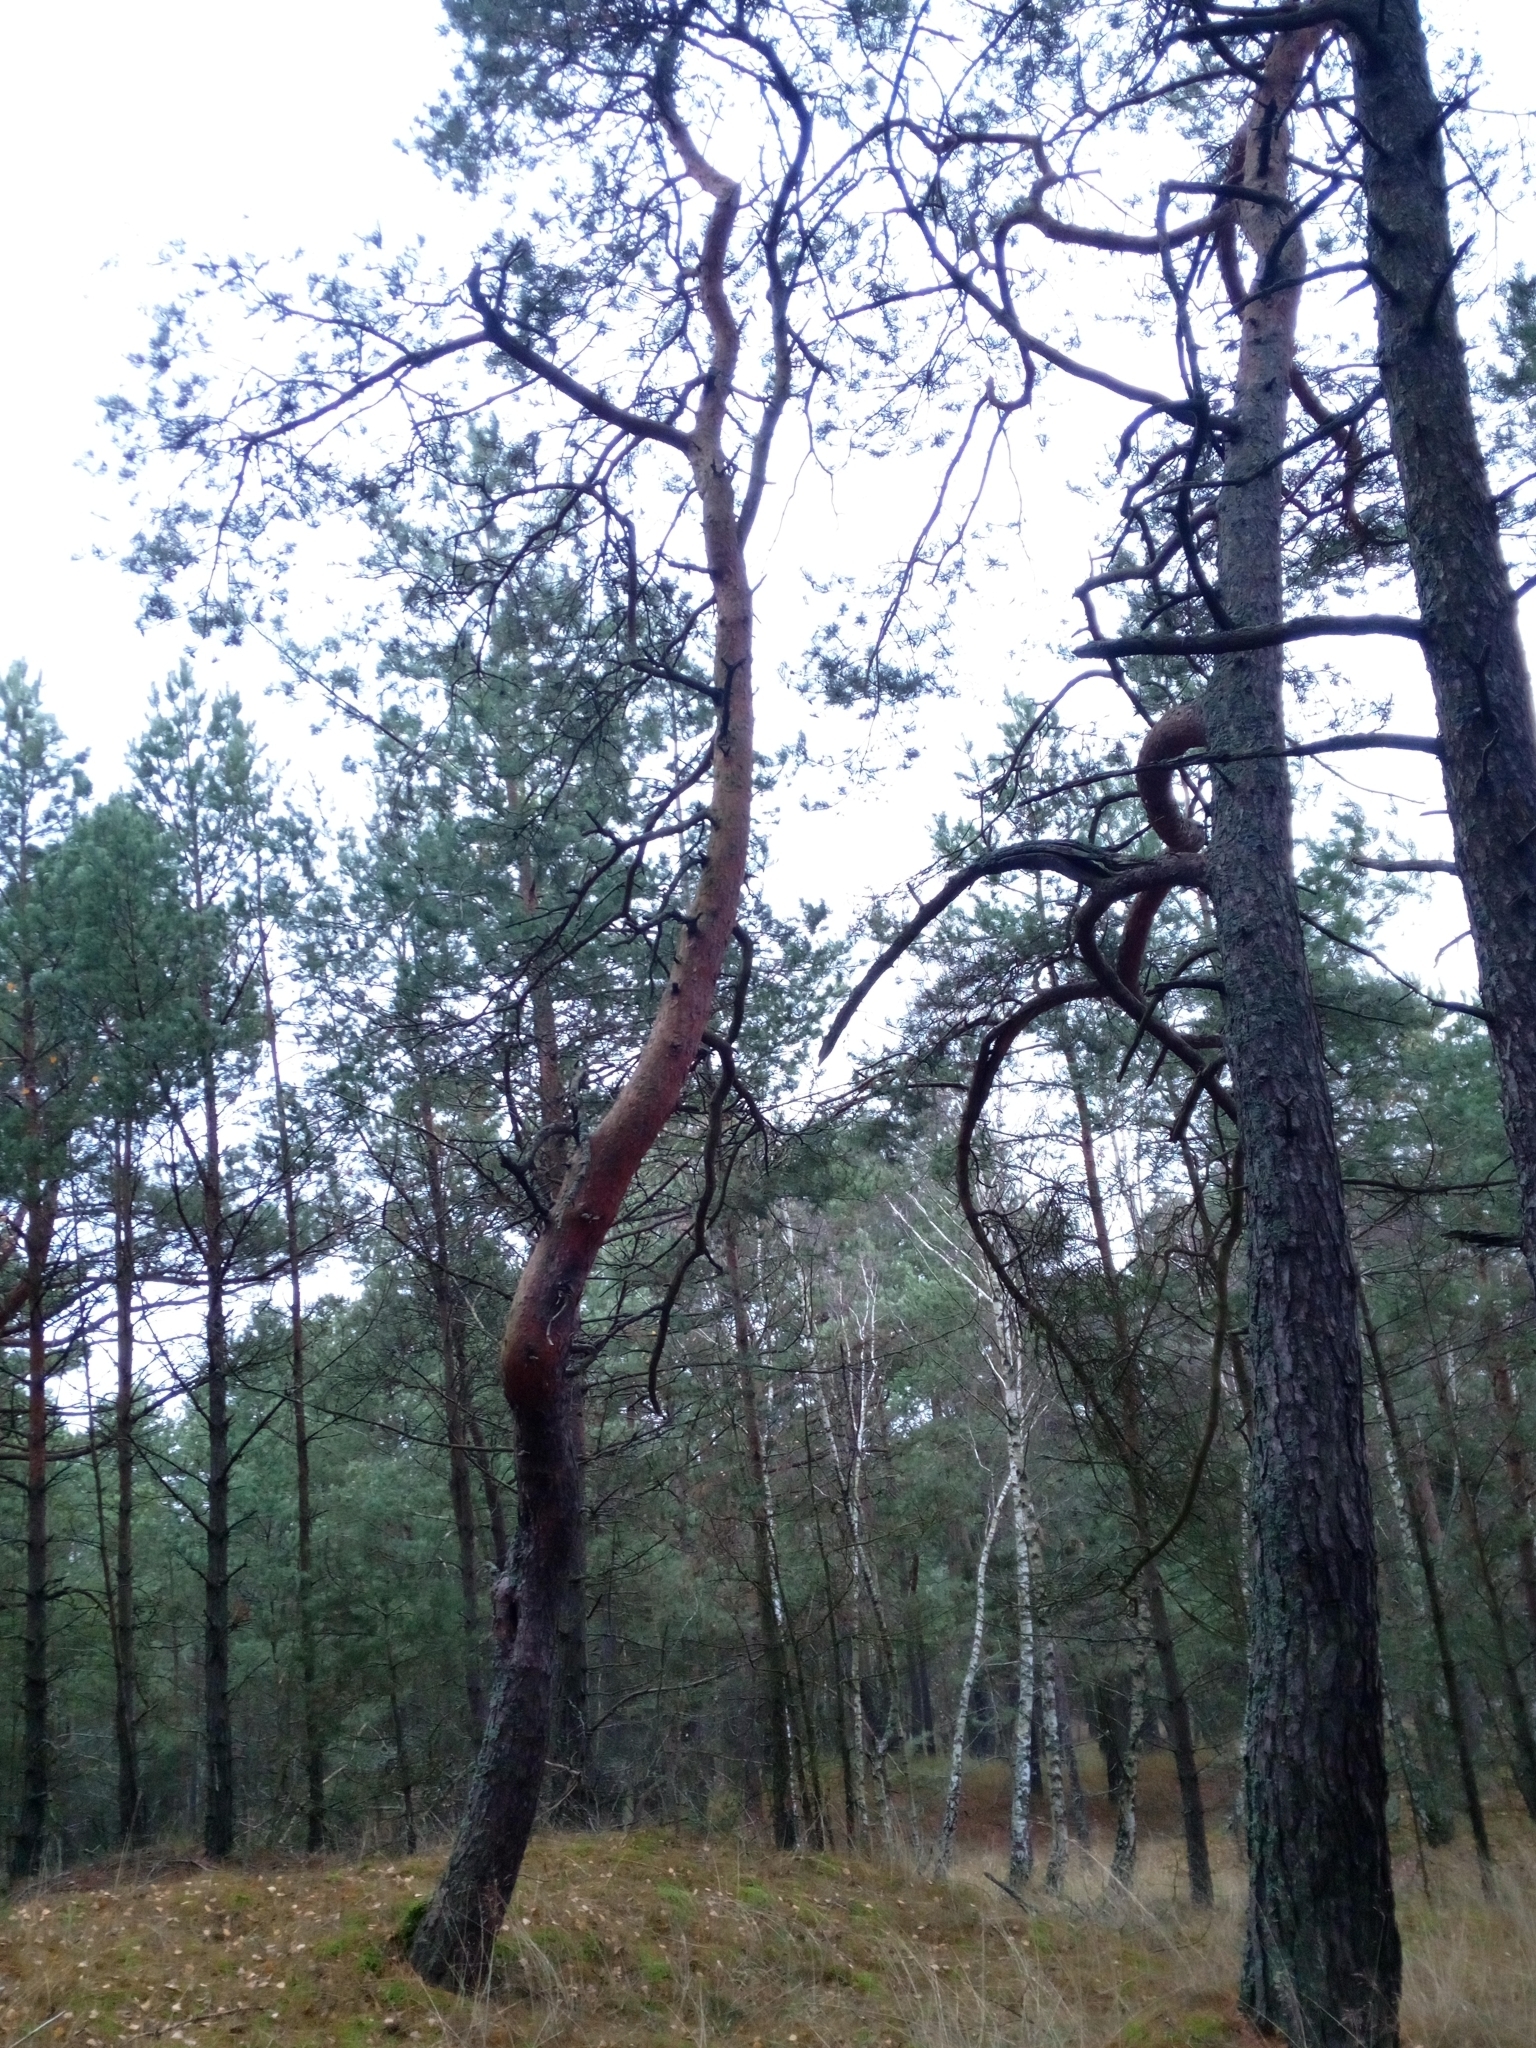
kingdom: Plantae
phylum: Tracheophyta
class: Pinopsida
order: Pinales
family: Pinaceae
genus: Pinus
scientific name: Pinus sylvestris
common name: Scots pine
